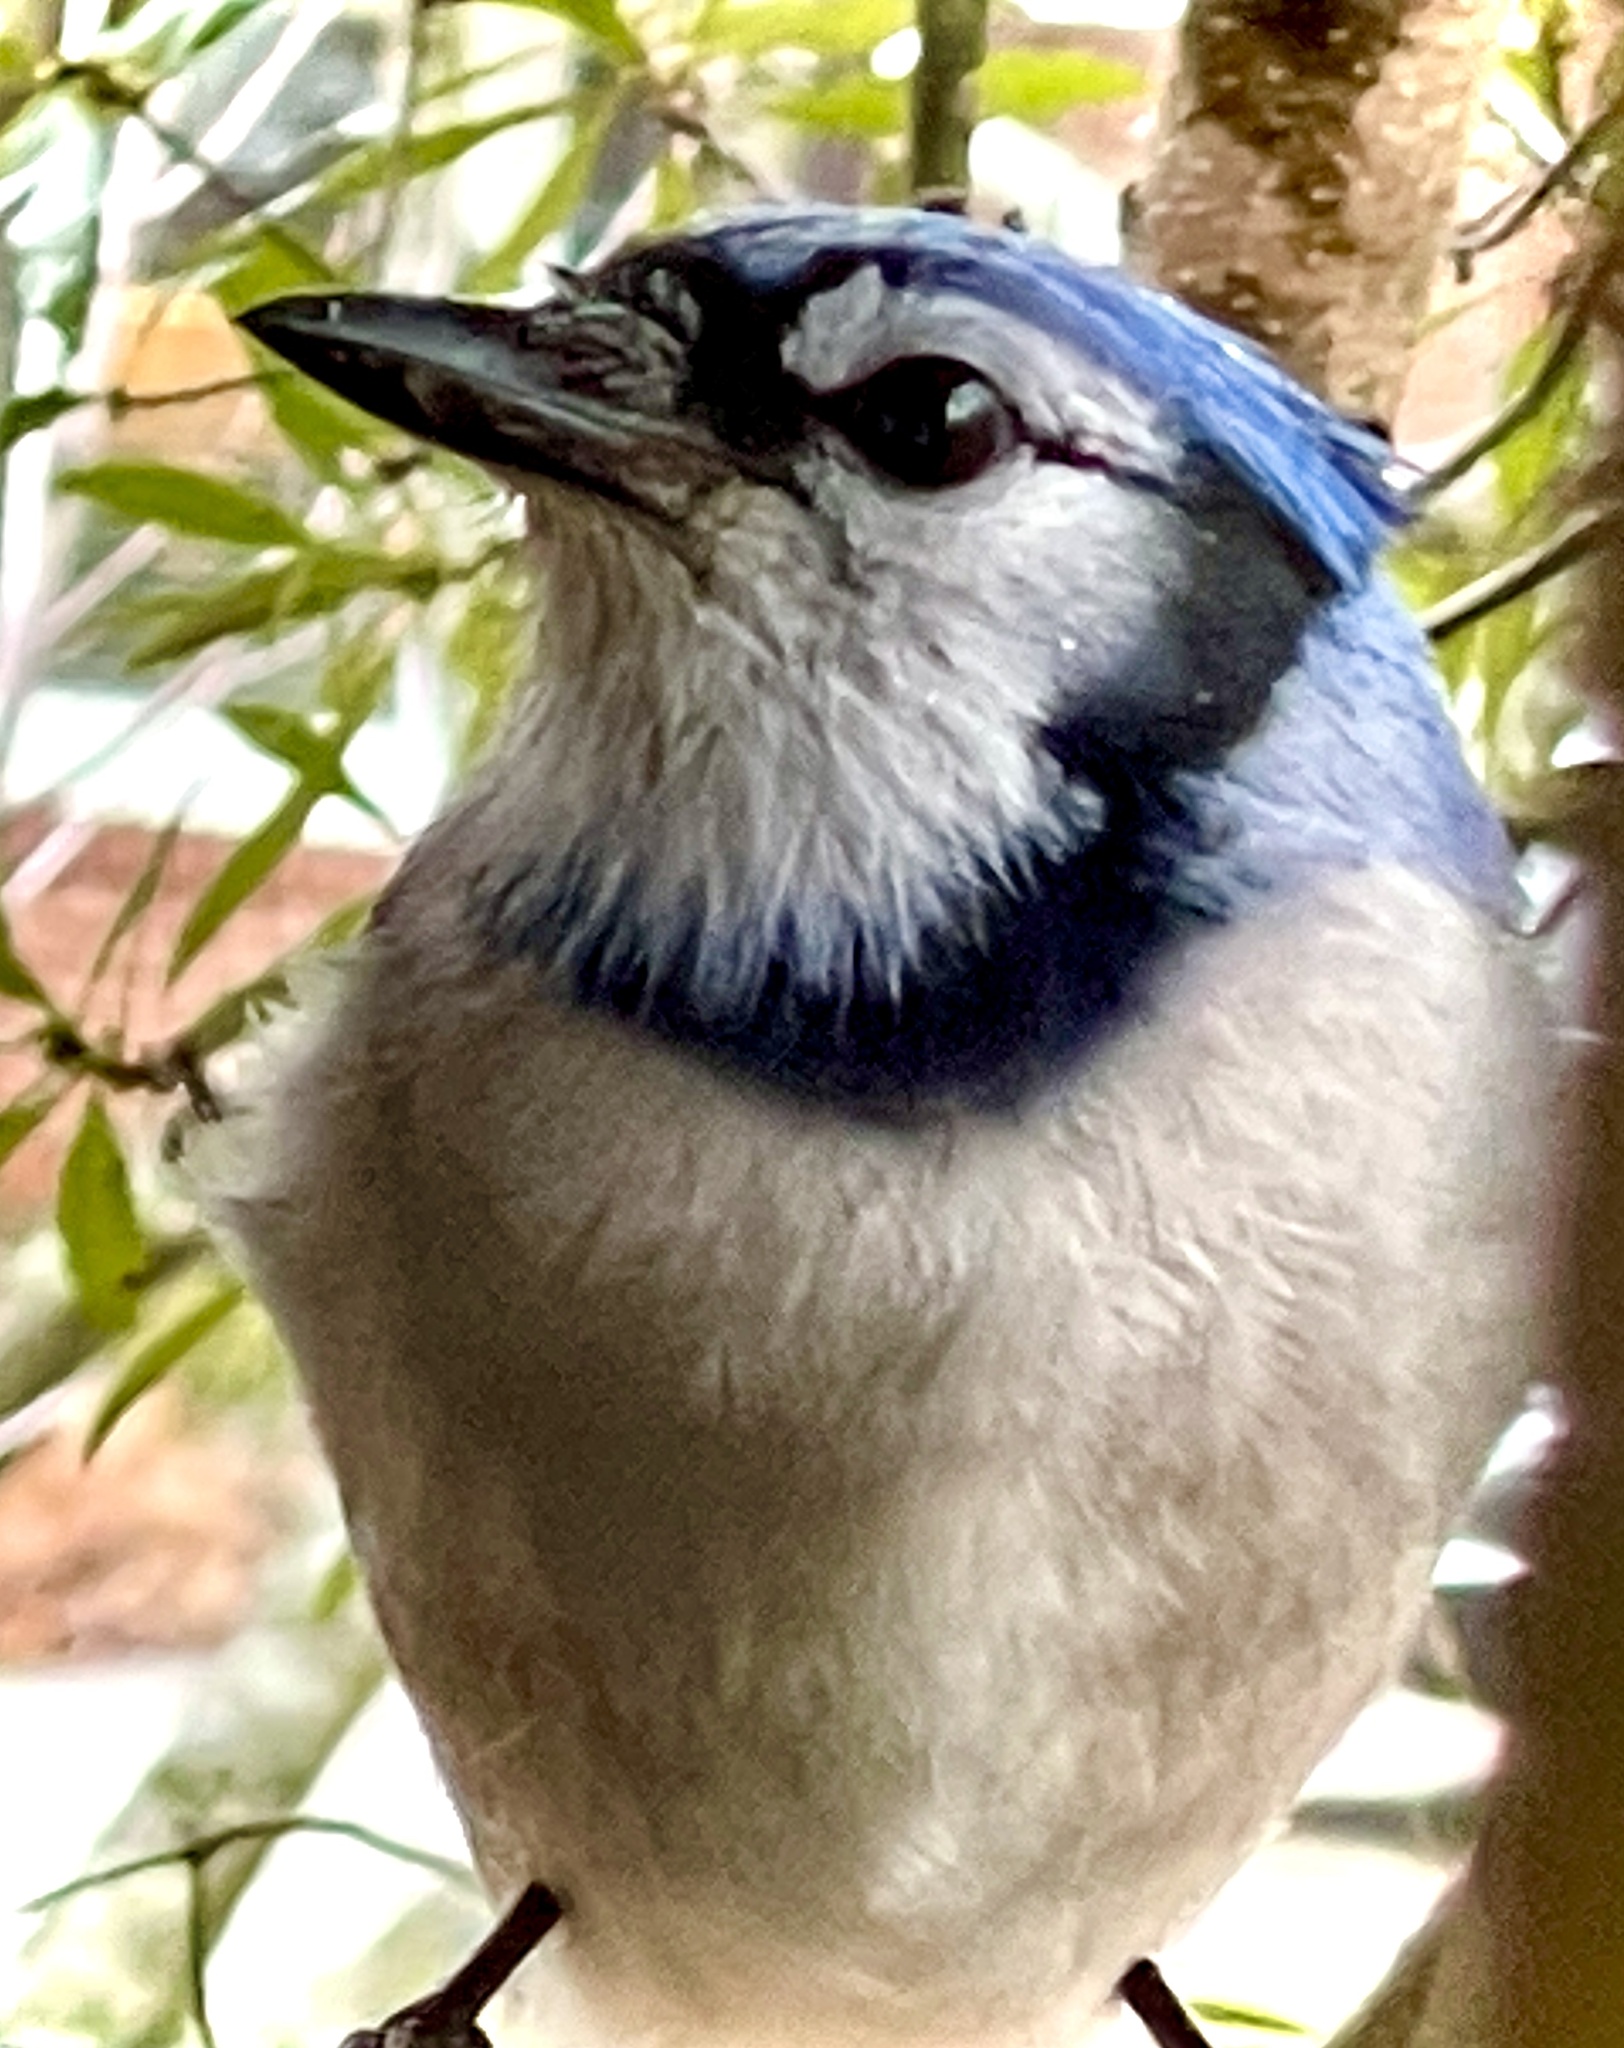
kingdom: Animalia
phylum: Chordata
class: Aves
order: Passeriformes
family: Corvidae
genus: Cyanocitta
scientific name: Cyanocitta cristata
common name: Blue jay
